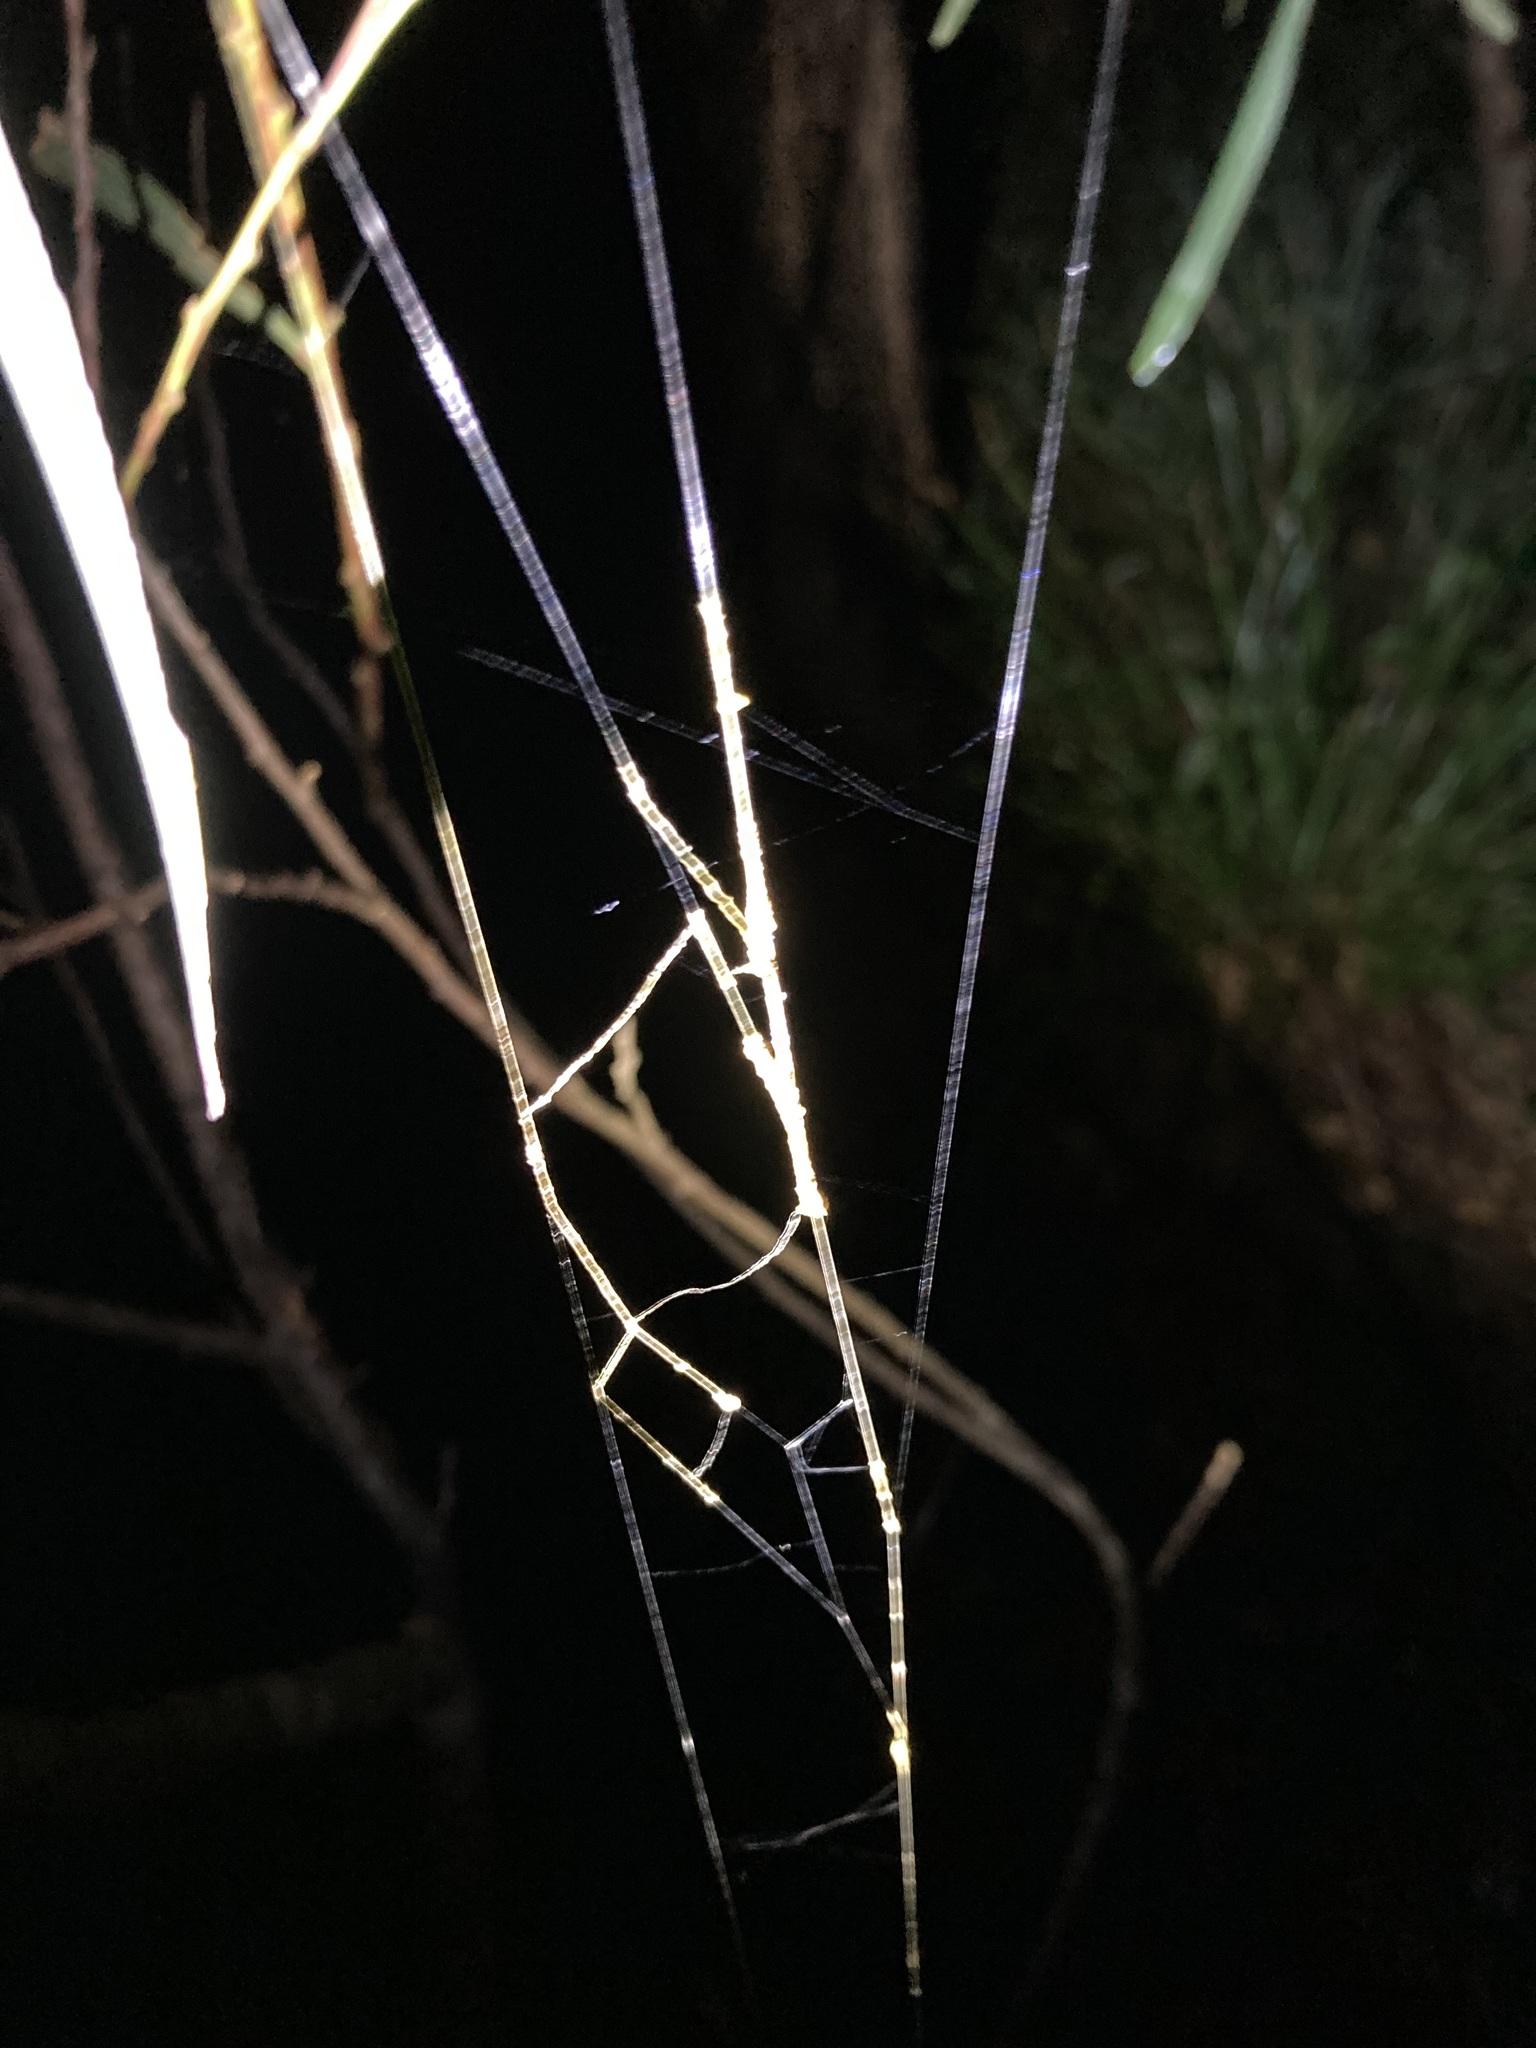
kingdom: Animalia
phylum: Arthropoda
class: Arachnida
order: Araneae
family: Araneidae
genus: Trichonephila
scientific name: Trichonephila plumipes
